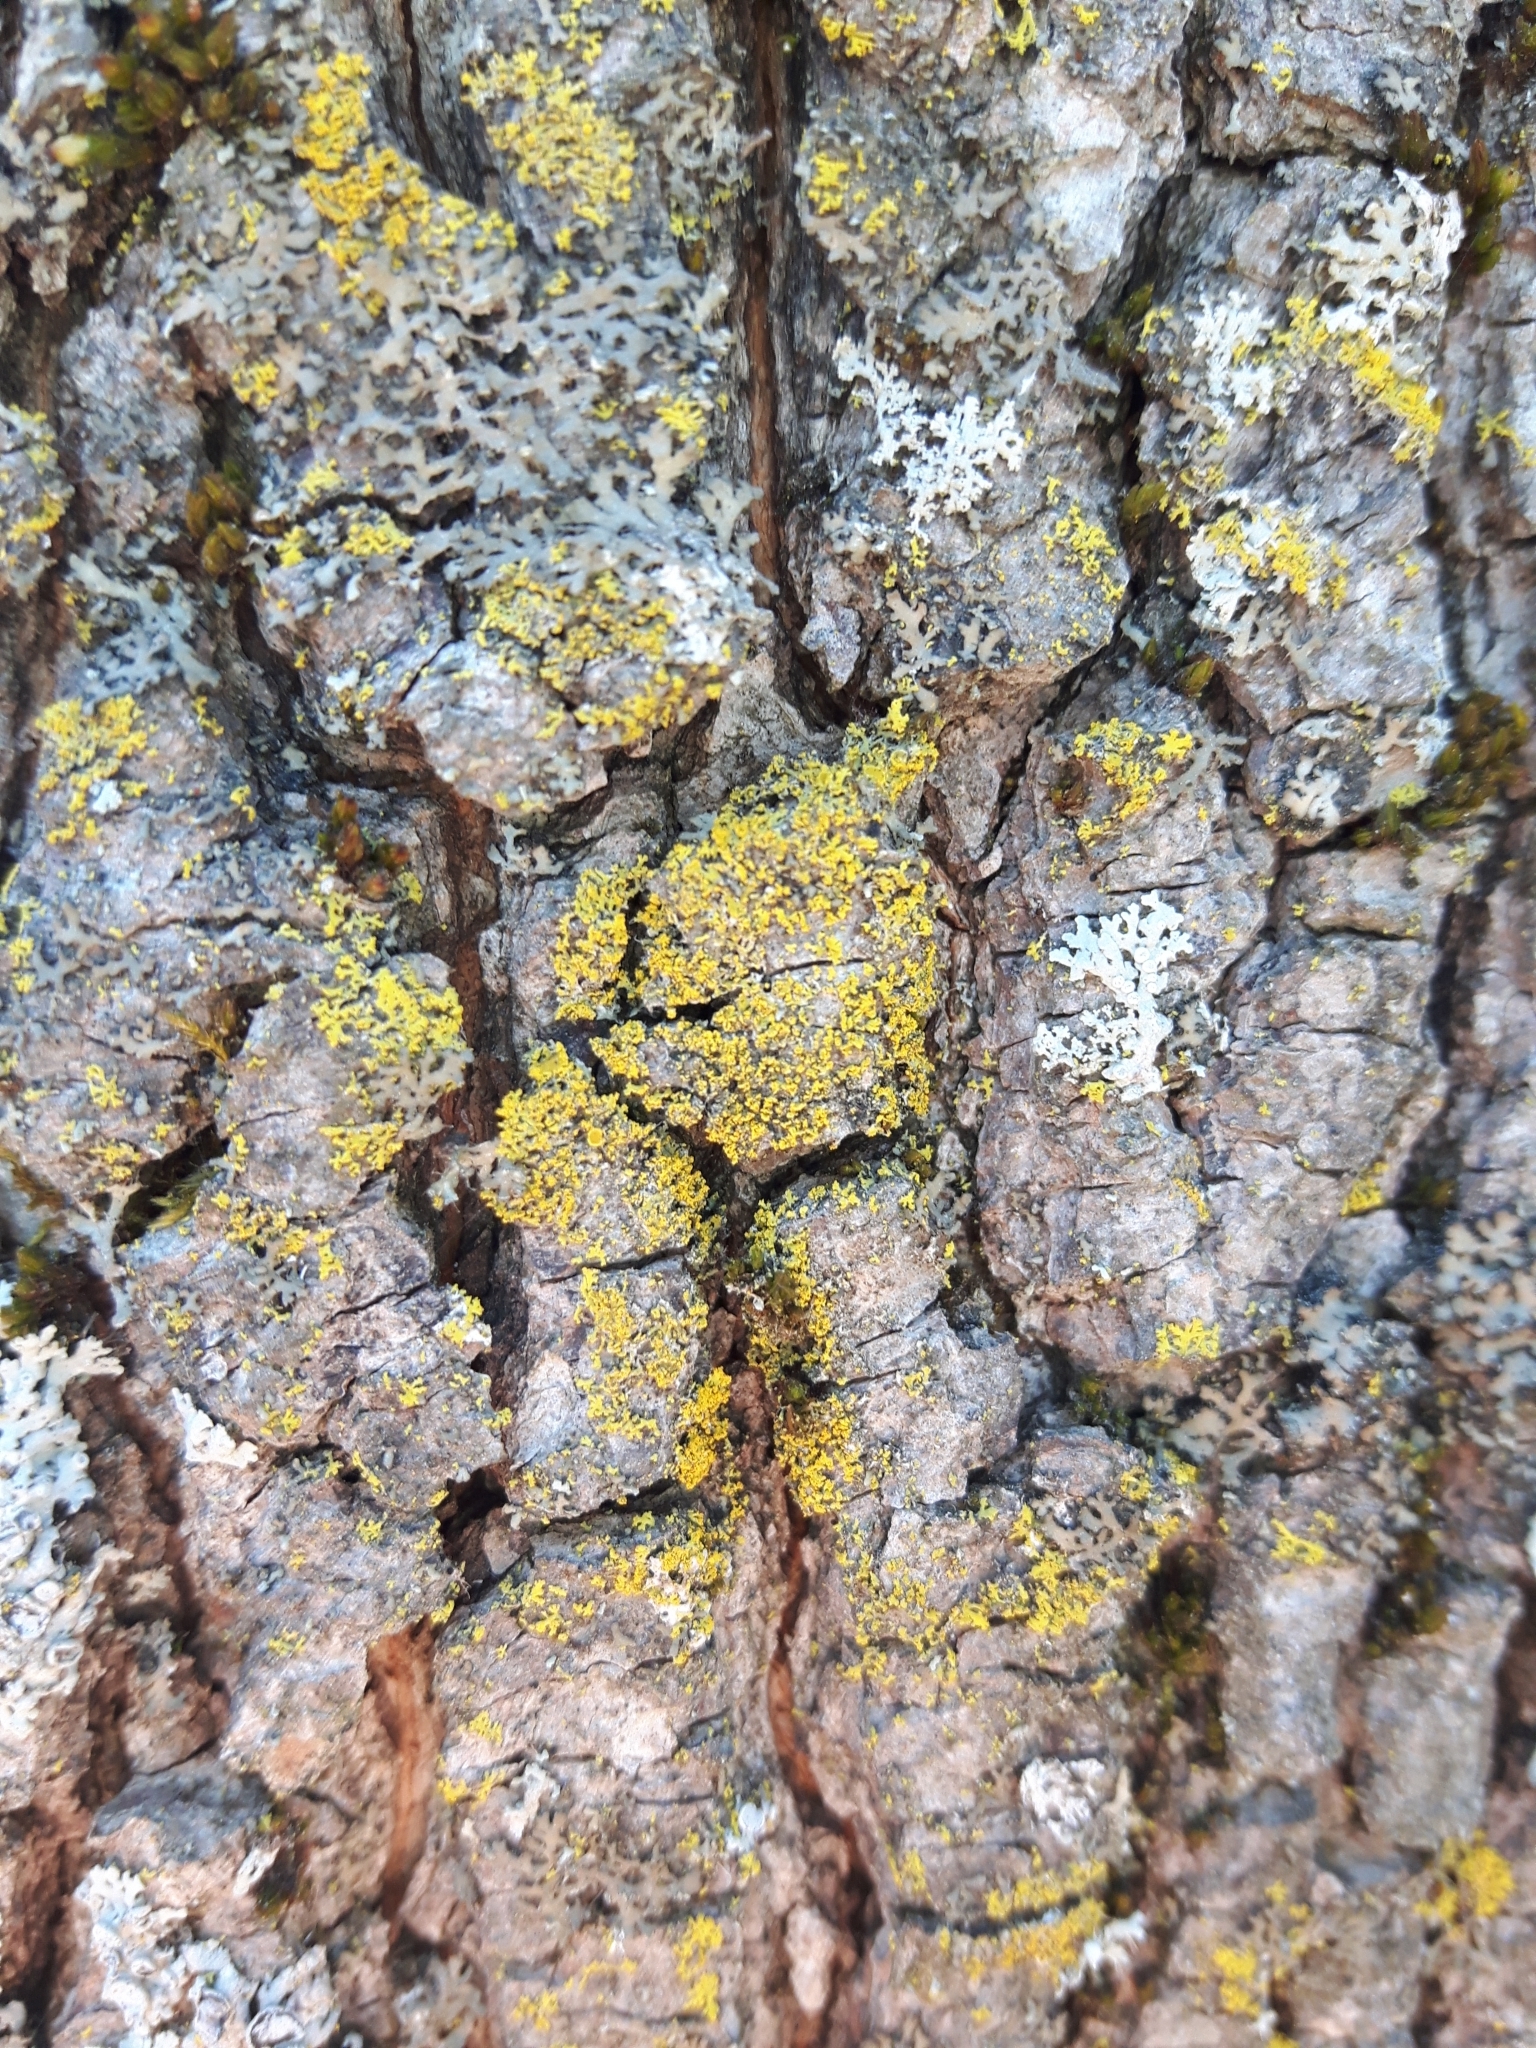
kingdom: Fungi
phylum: Ascomycota
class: Candelariomycetes
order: Candelariales
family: Candelariaceae
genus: Candelaria
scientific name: Candelaria concolor
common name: Candleflame lichen
